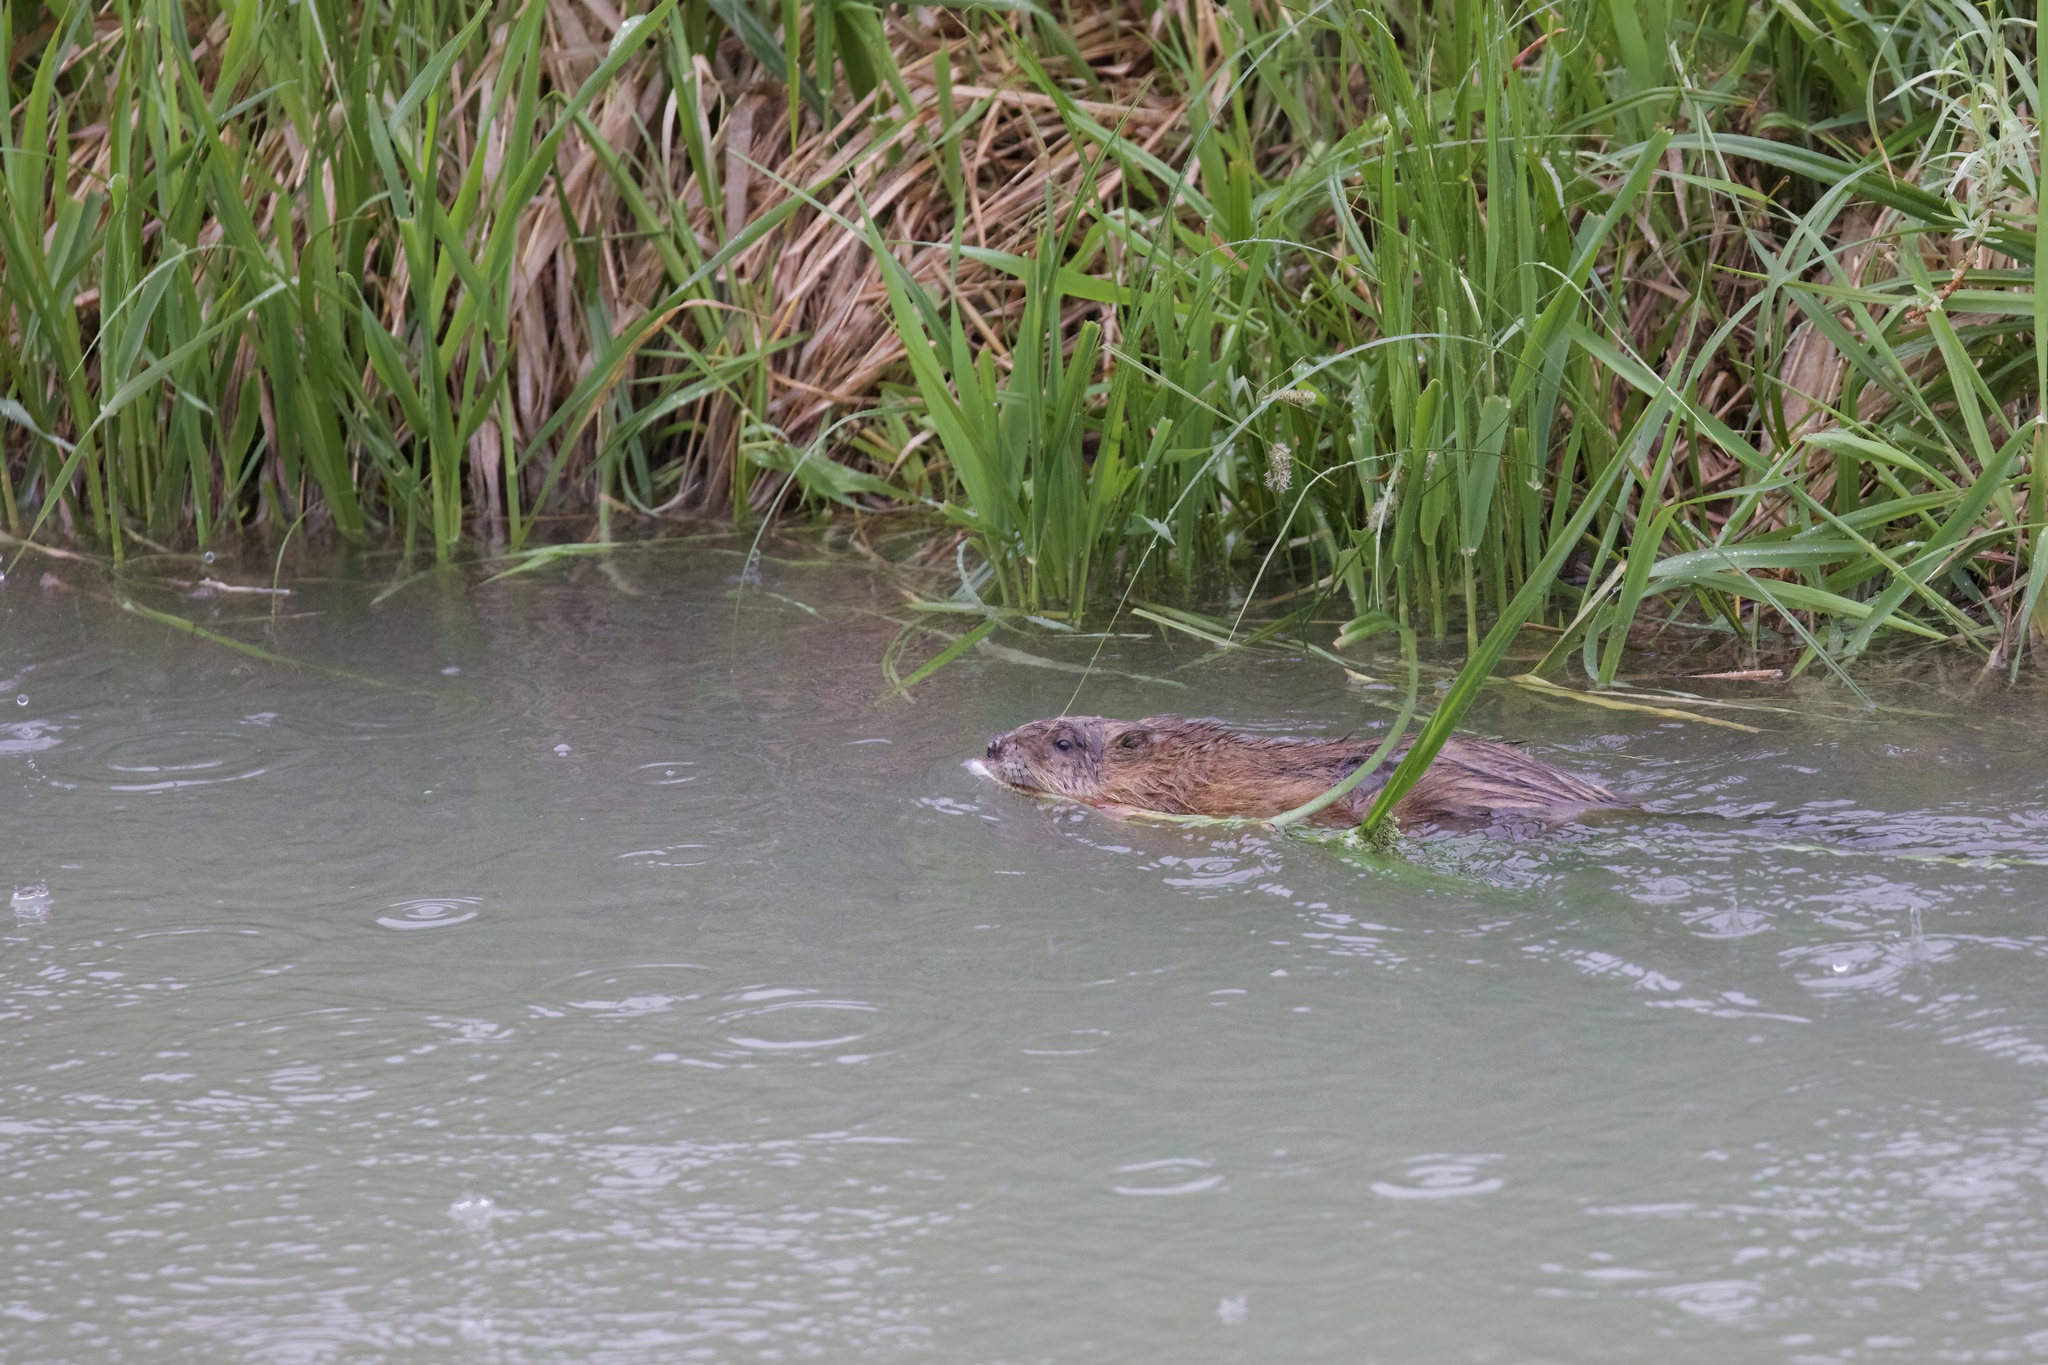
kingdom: Animalia
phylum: Chordata
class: Mammalia
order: Rodentia
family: Cricetidae
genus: Ondatra
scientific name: Ondatra zibethicus
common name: Muskrat
